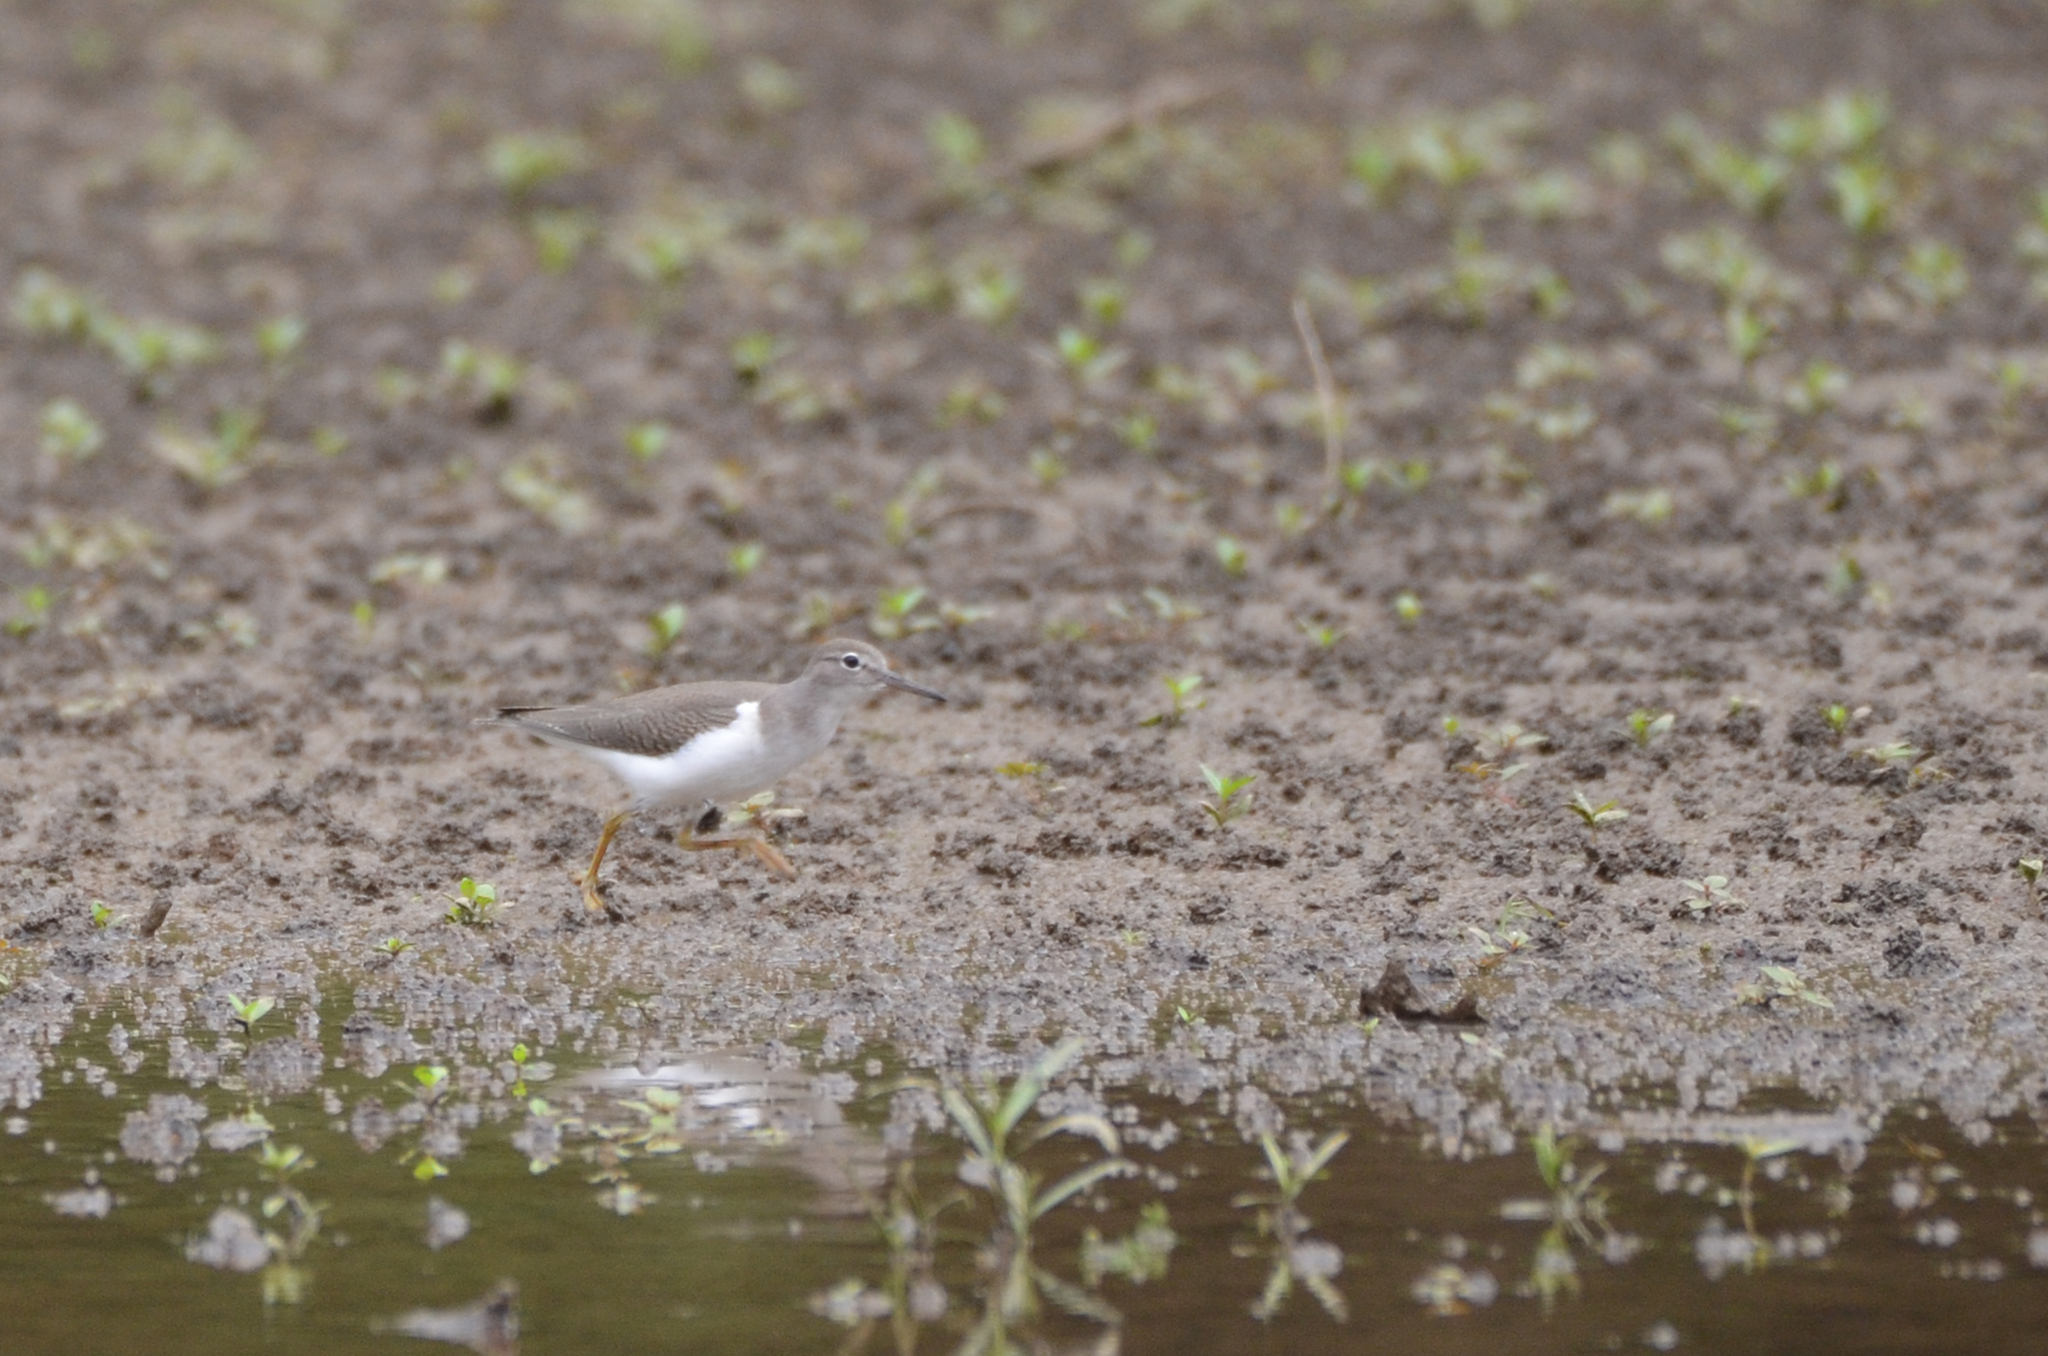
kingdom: Animalia
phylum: Chordata
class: Aves
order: Charadriiformes
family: Scolopacidae
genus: Actitis
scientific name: Actitis macularius
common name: Spotted sandpiper
